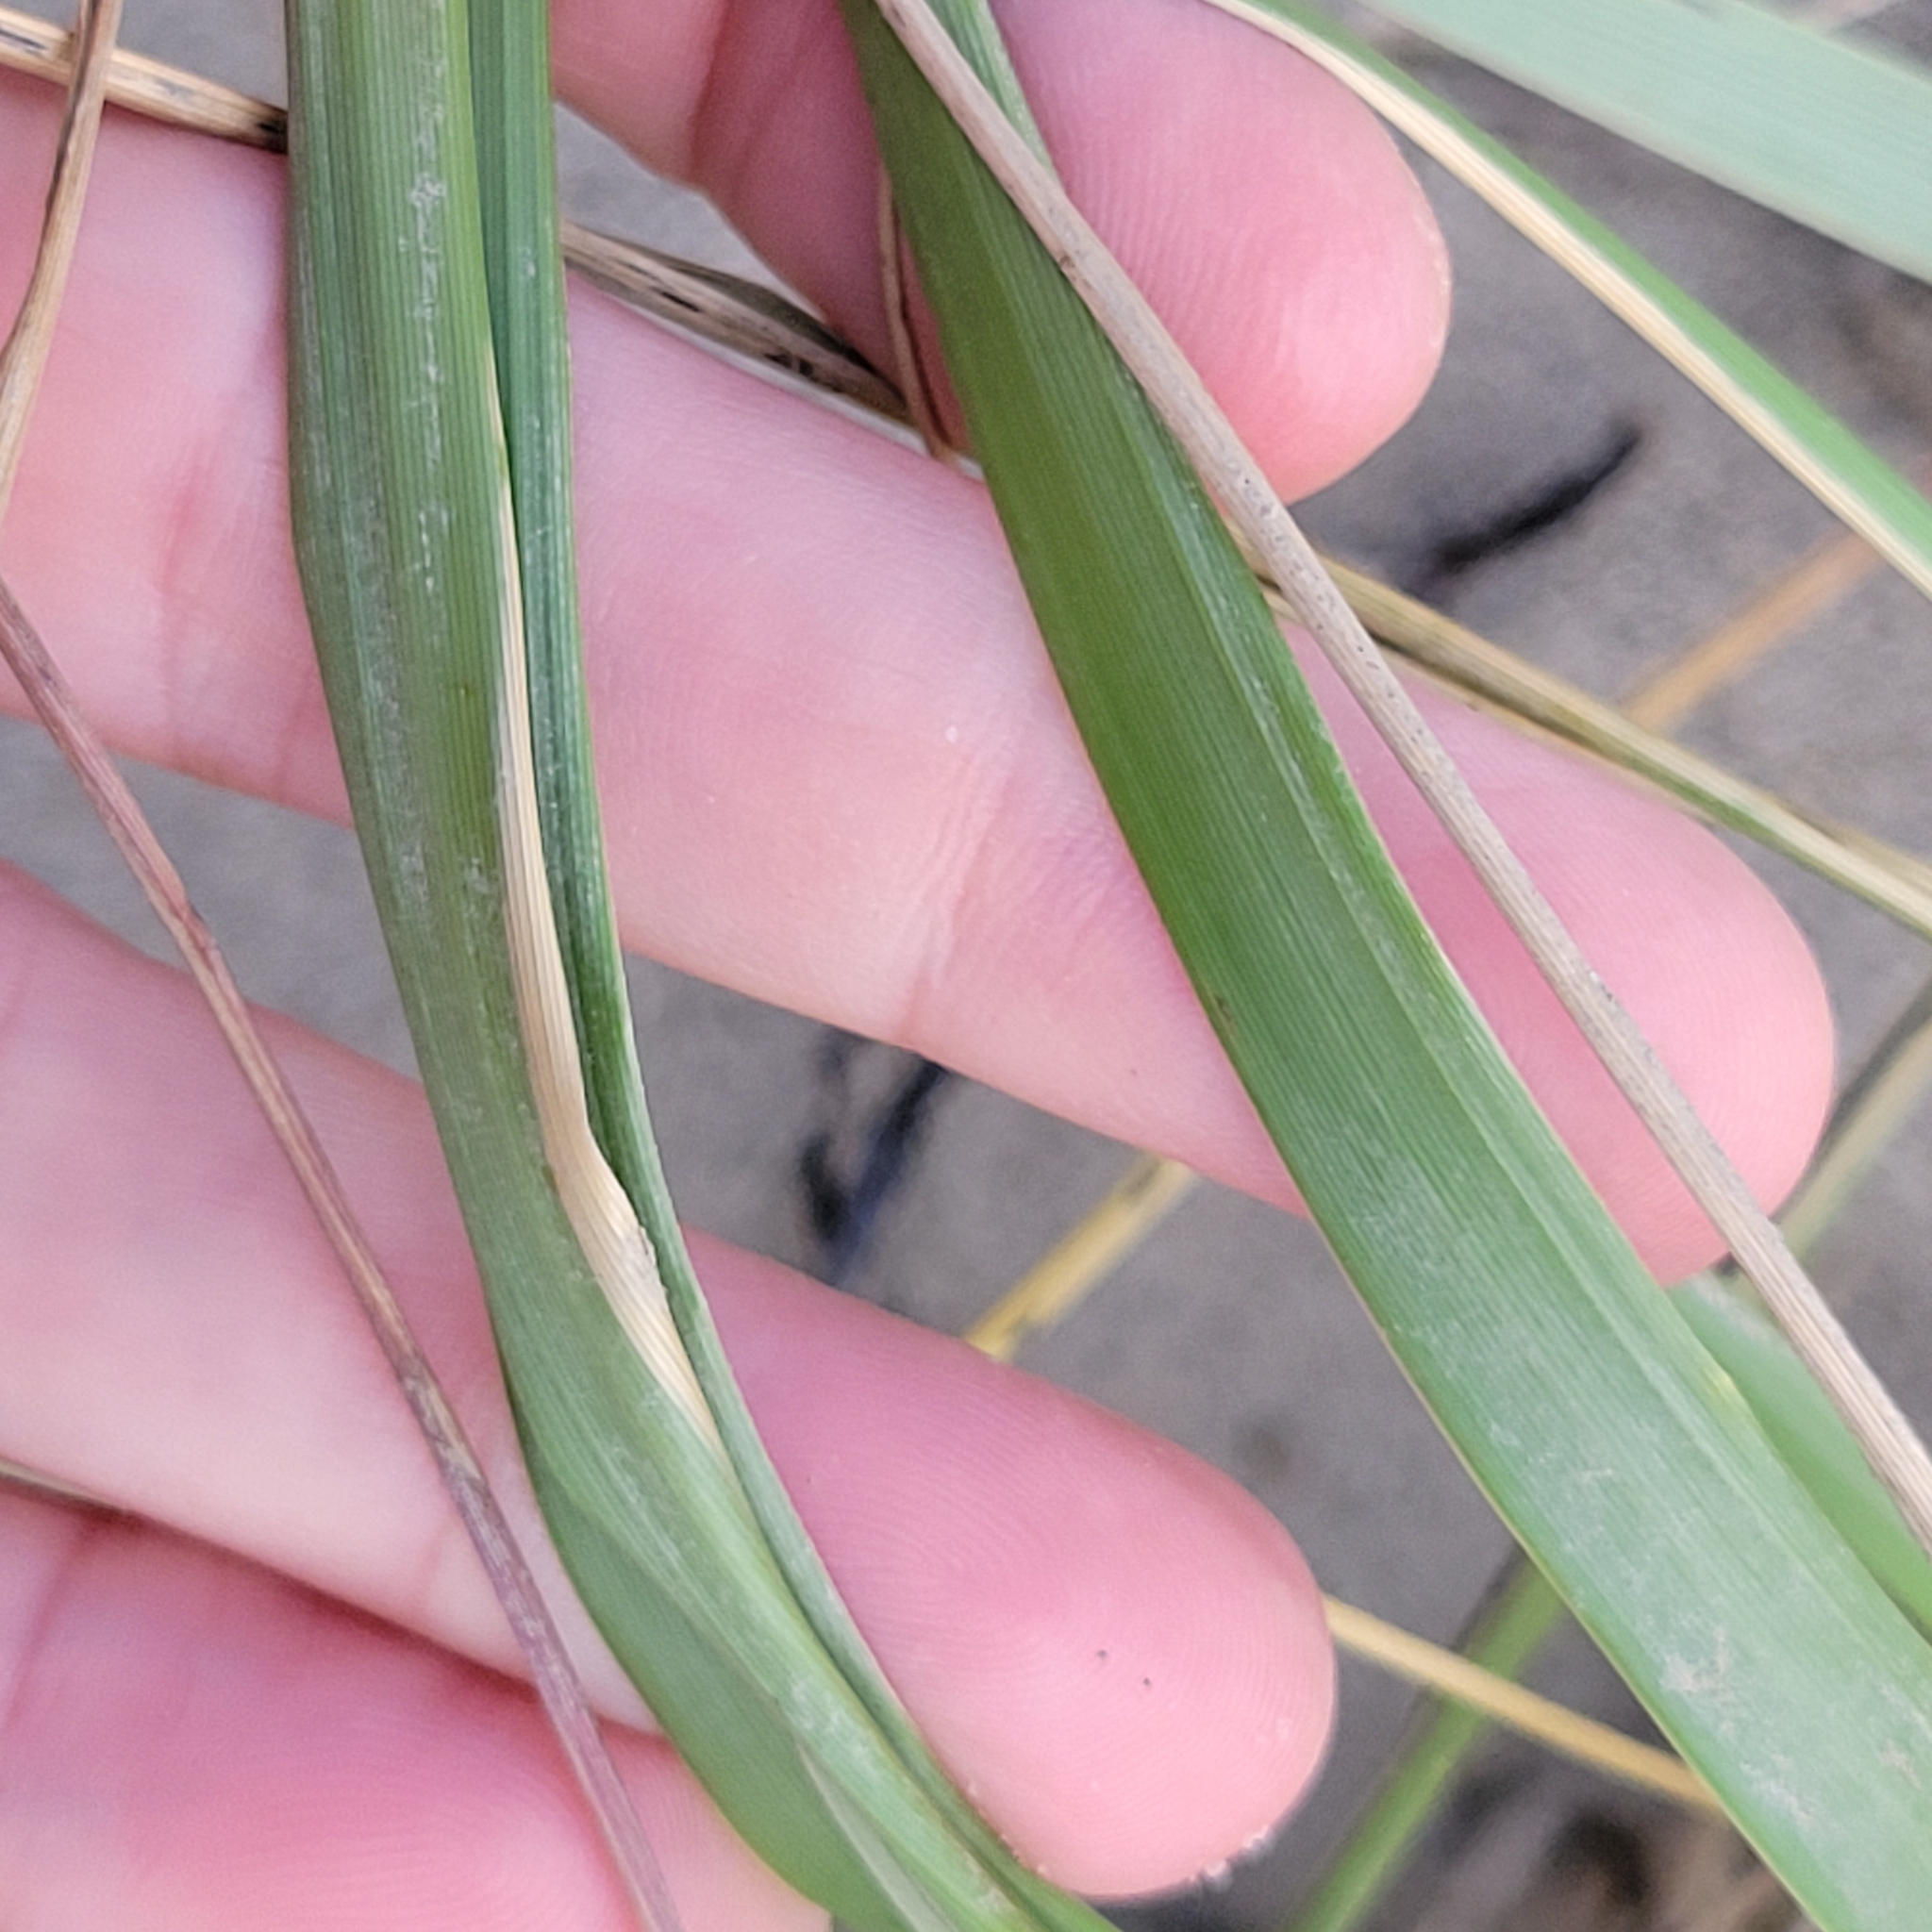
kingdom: Plantae
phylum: Tracheophyta
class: Liliopsida
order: Poales
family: Poaceae
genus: Calamagrostis
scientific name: Calamagrostis breviligulata
